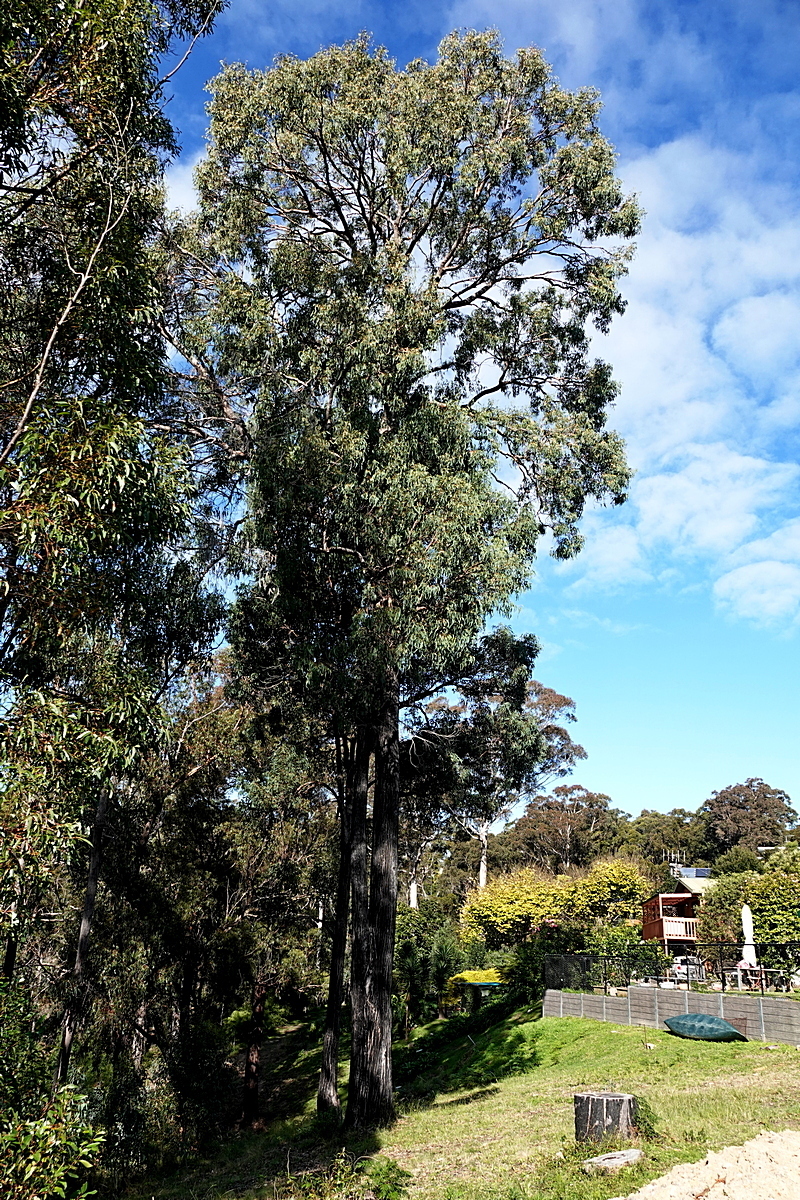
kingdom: Plantae
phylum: Tracheophyta
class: Magnoliopsida
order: Myrtales
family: Myrtaceae
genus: Eucalyptus
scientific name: Eucalyptus longifolia
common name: Woollybutt
